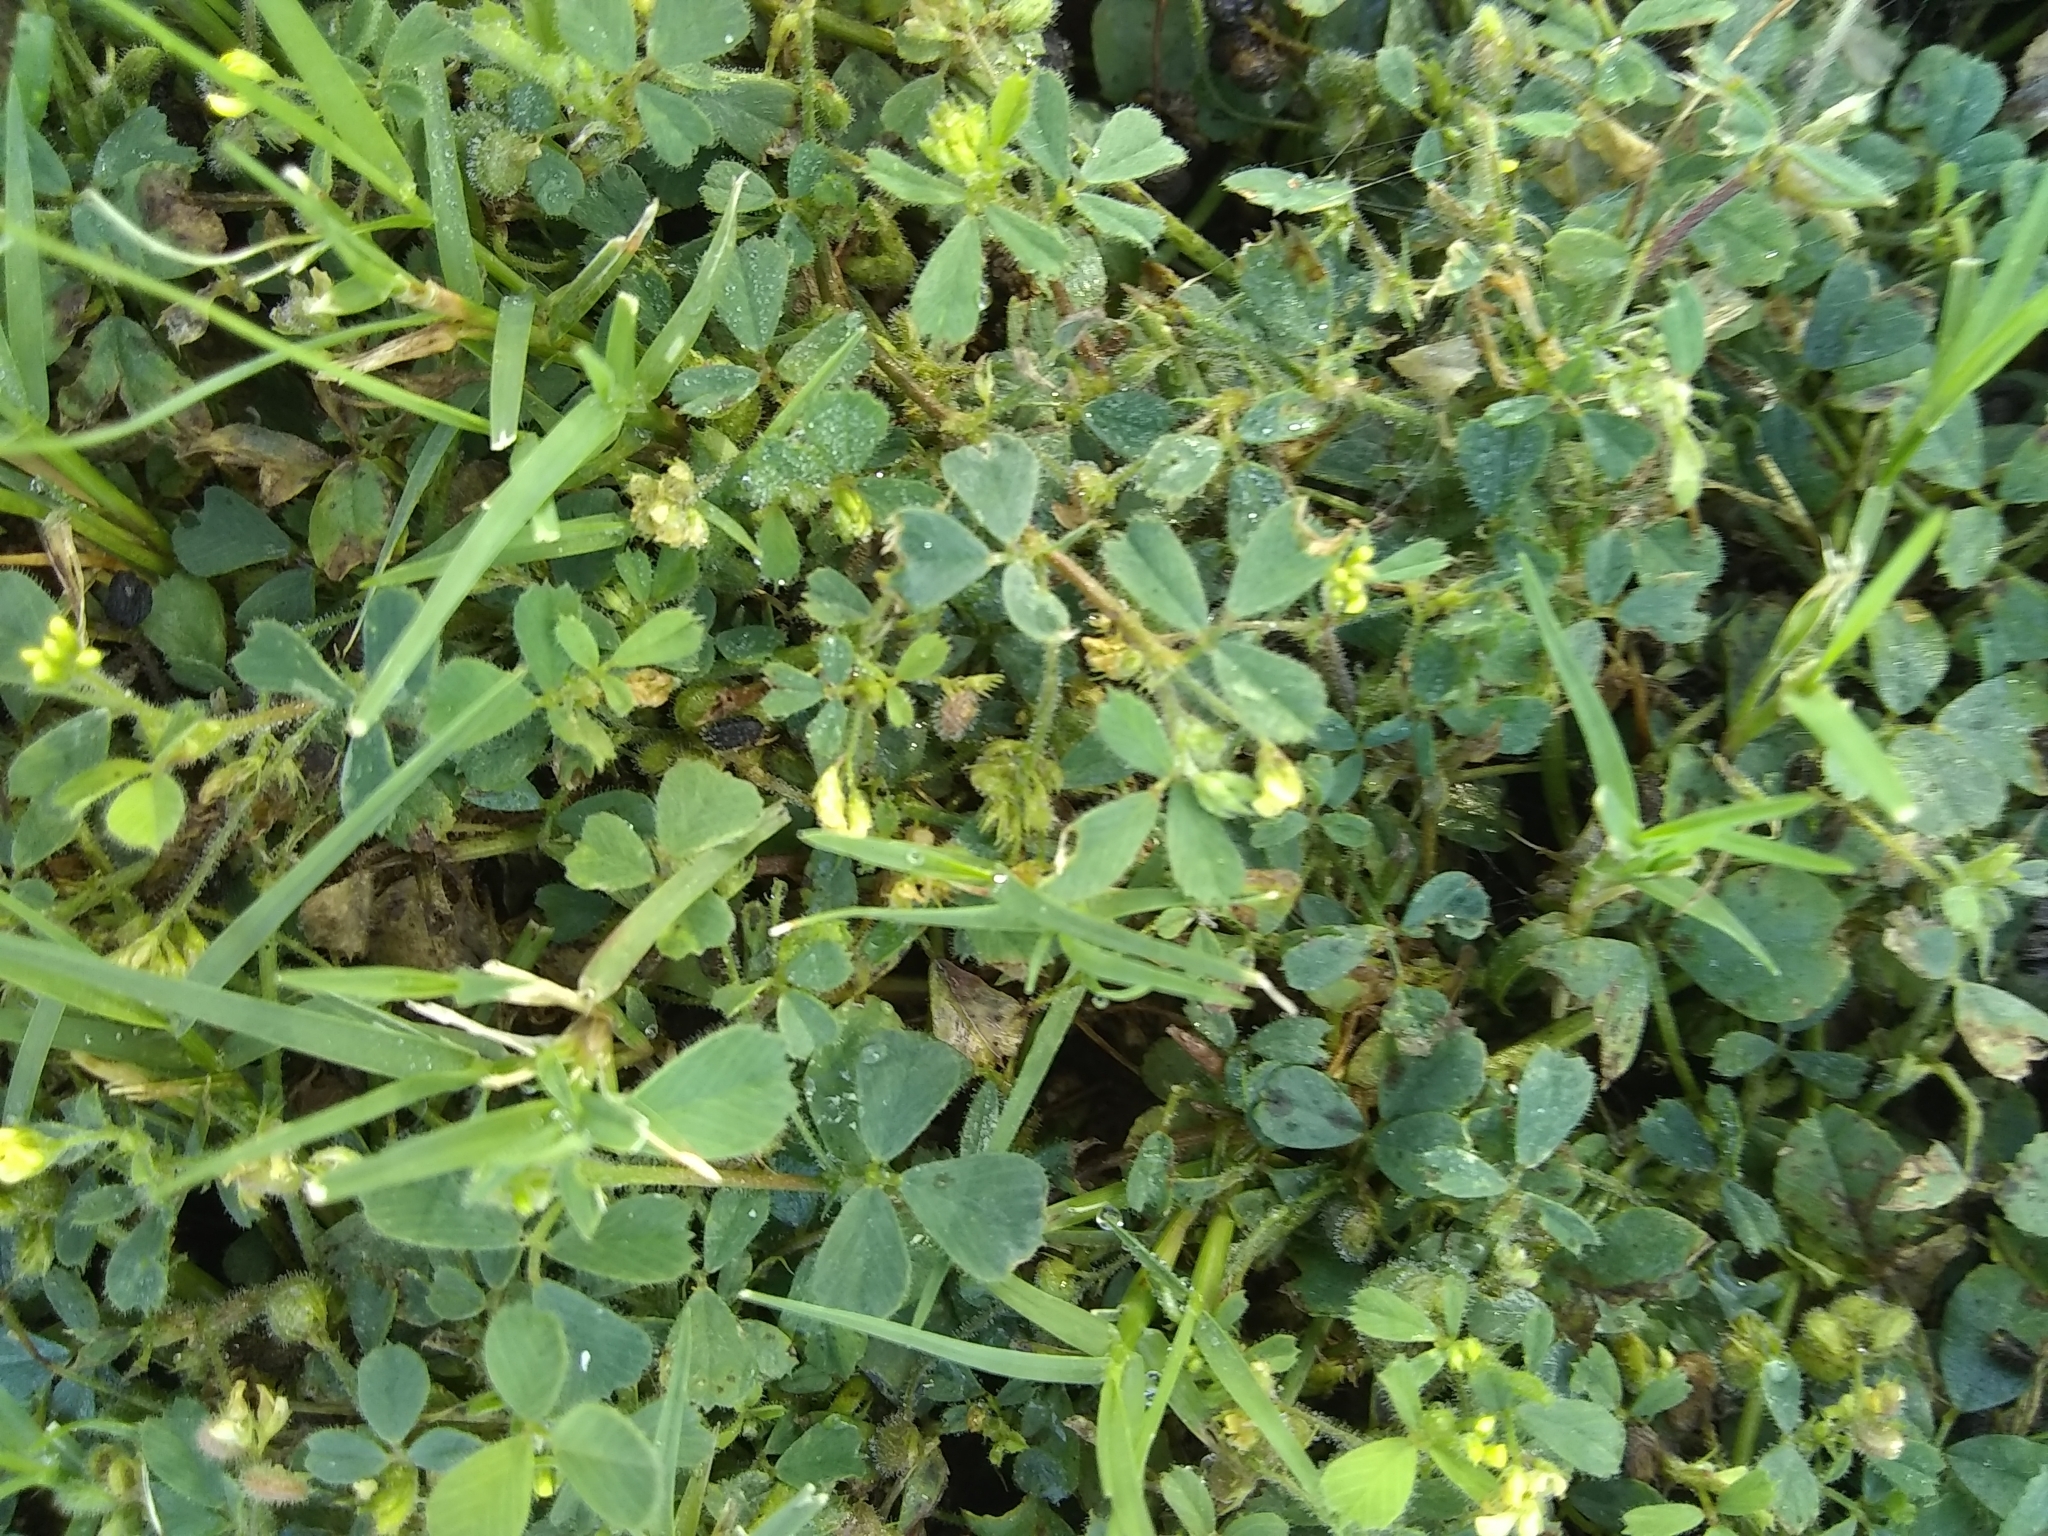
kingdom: Plantae
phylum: Tracheophyta
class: Magnoliopsida
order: Fabales
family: Fabaceae
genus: Medicago
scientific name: Medicago lupulina
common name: Black medick
